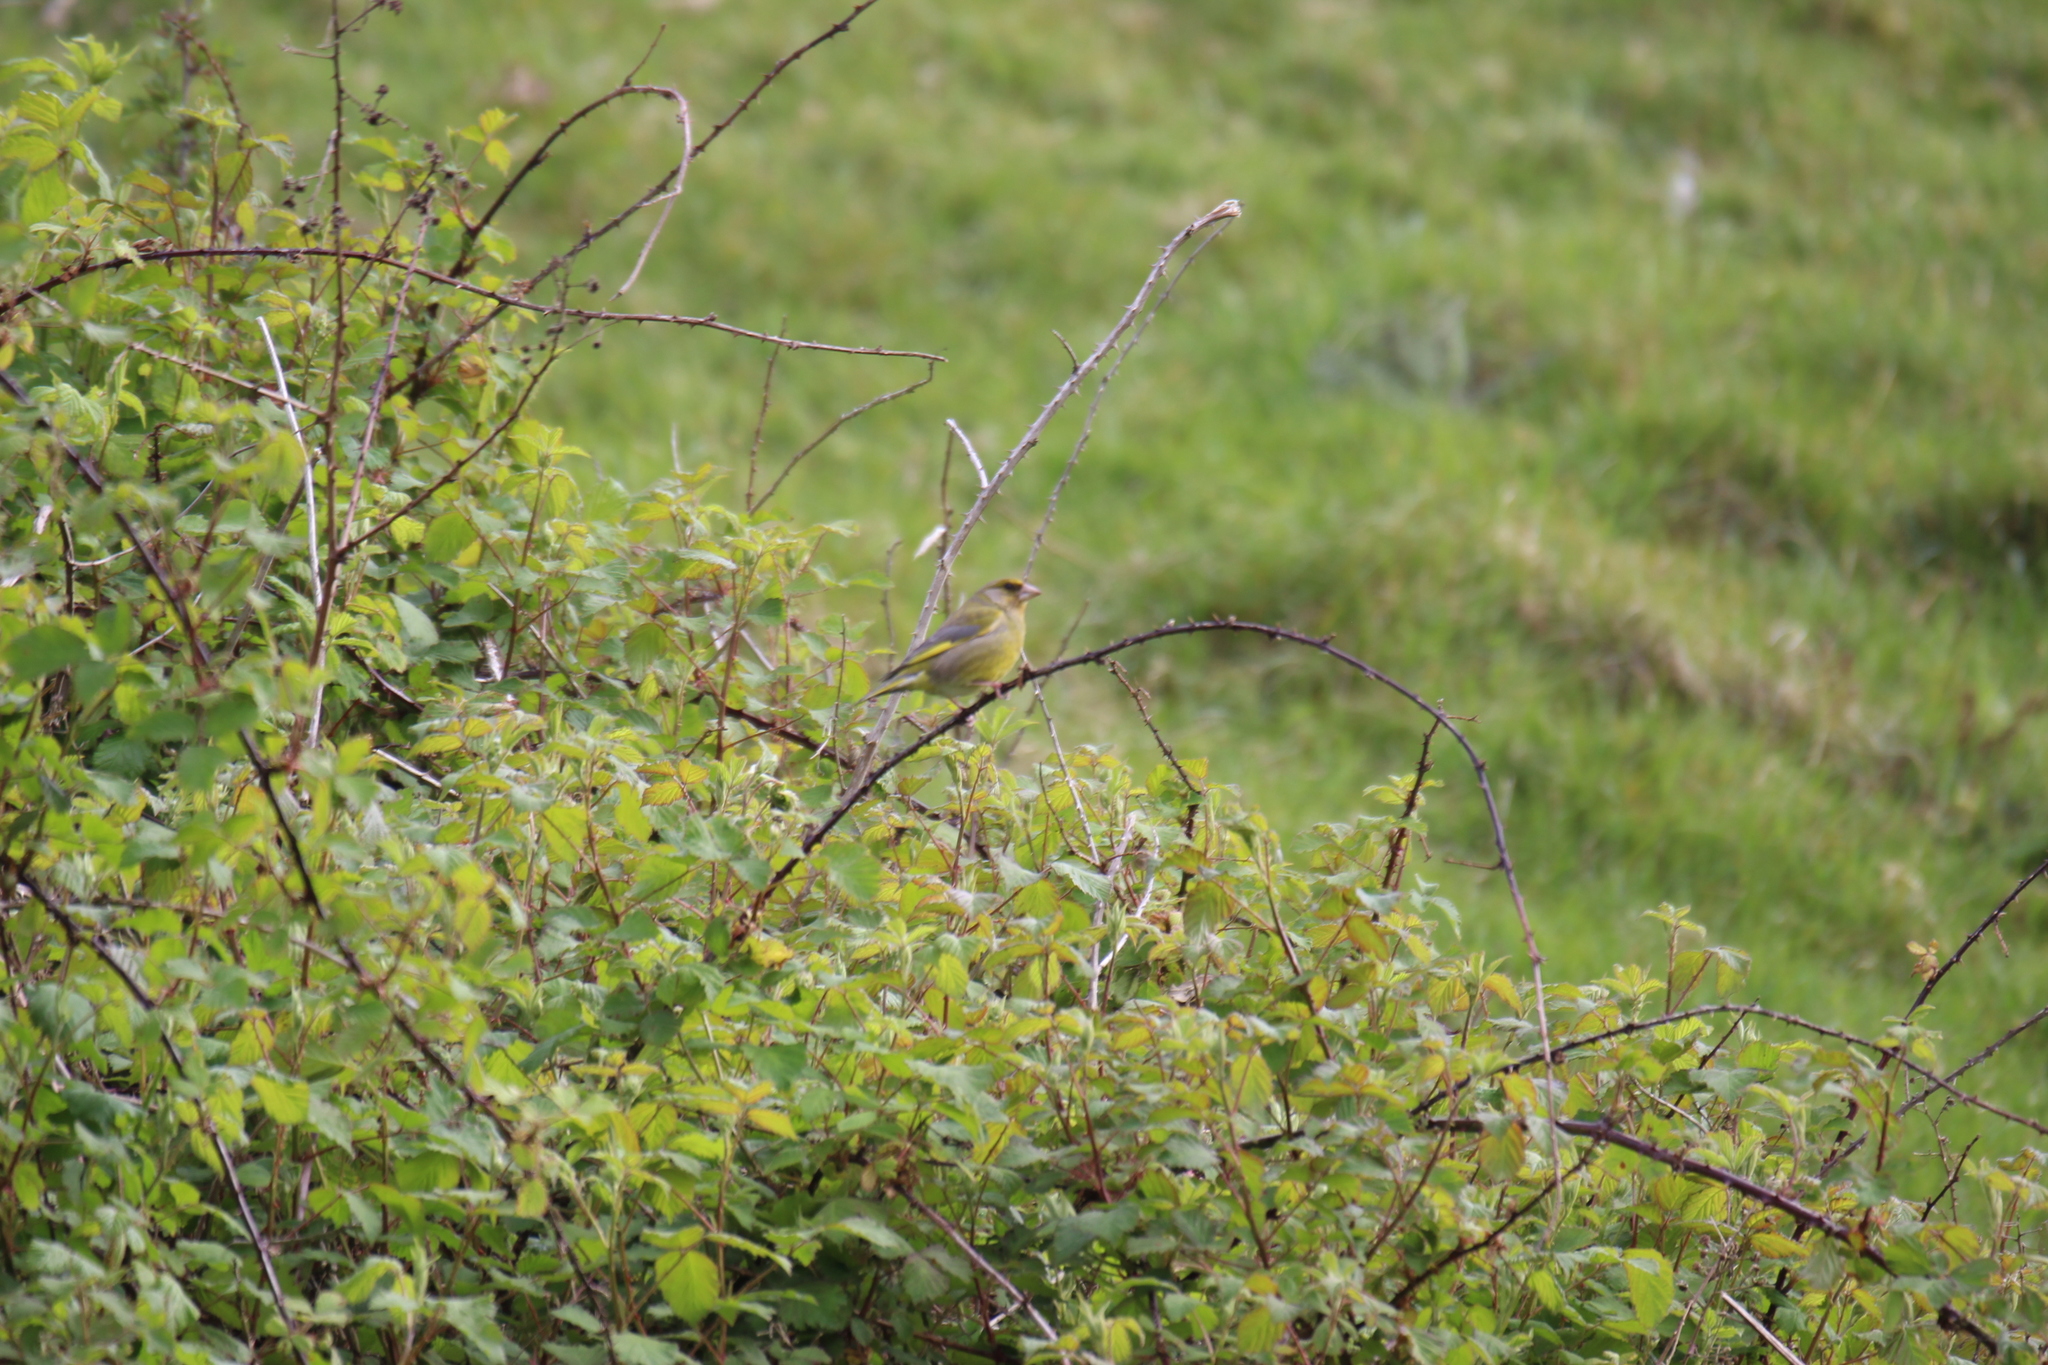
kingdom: Plantae
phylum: Tracheophyta
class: Liliopsida
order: Poales
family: Poaceae
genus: Chloris
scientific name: Chloris chloris
